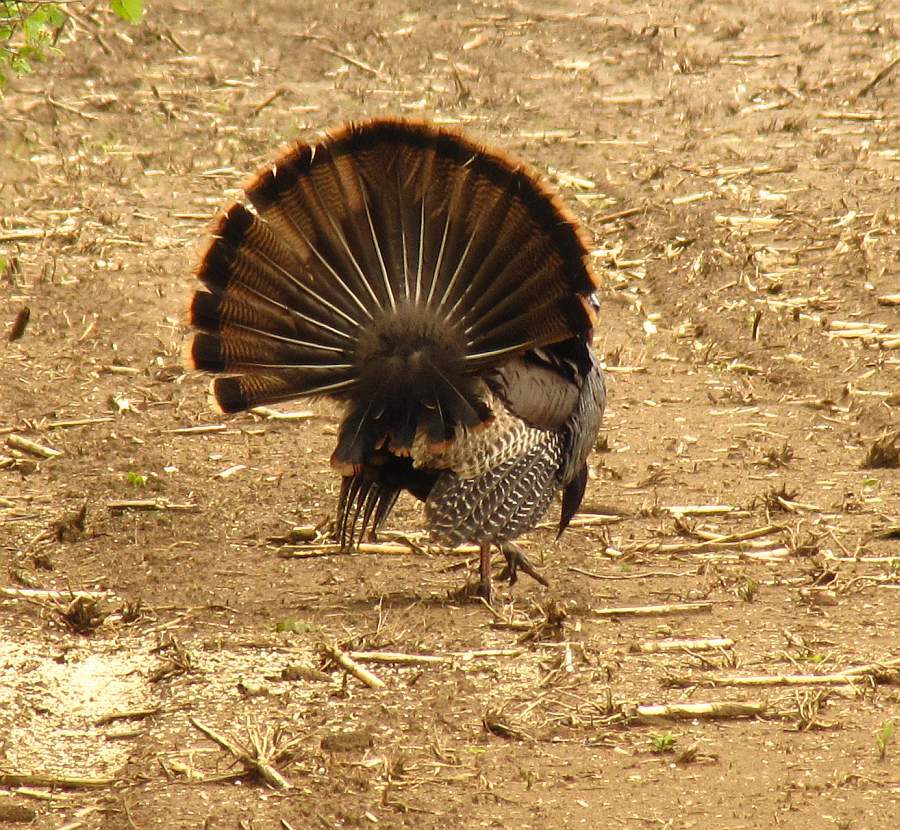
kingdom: Animalia
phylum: Chordata
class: Aves
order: Galliformes
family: Phasianidae
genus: Meleagris
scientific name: Meleagris gallopavo
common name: Wild turkey
